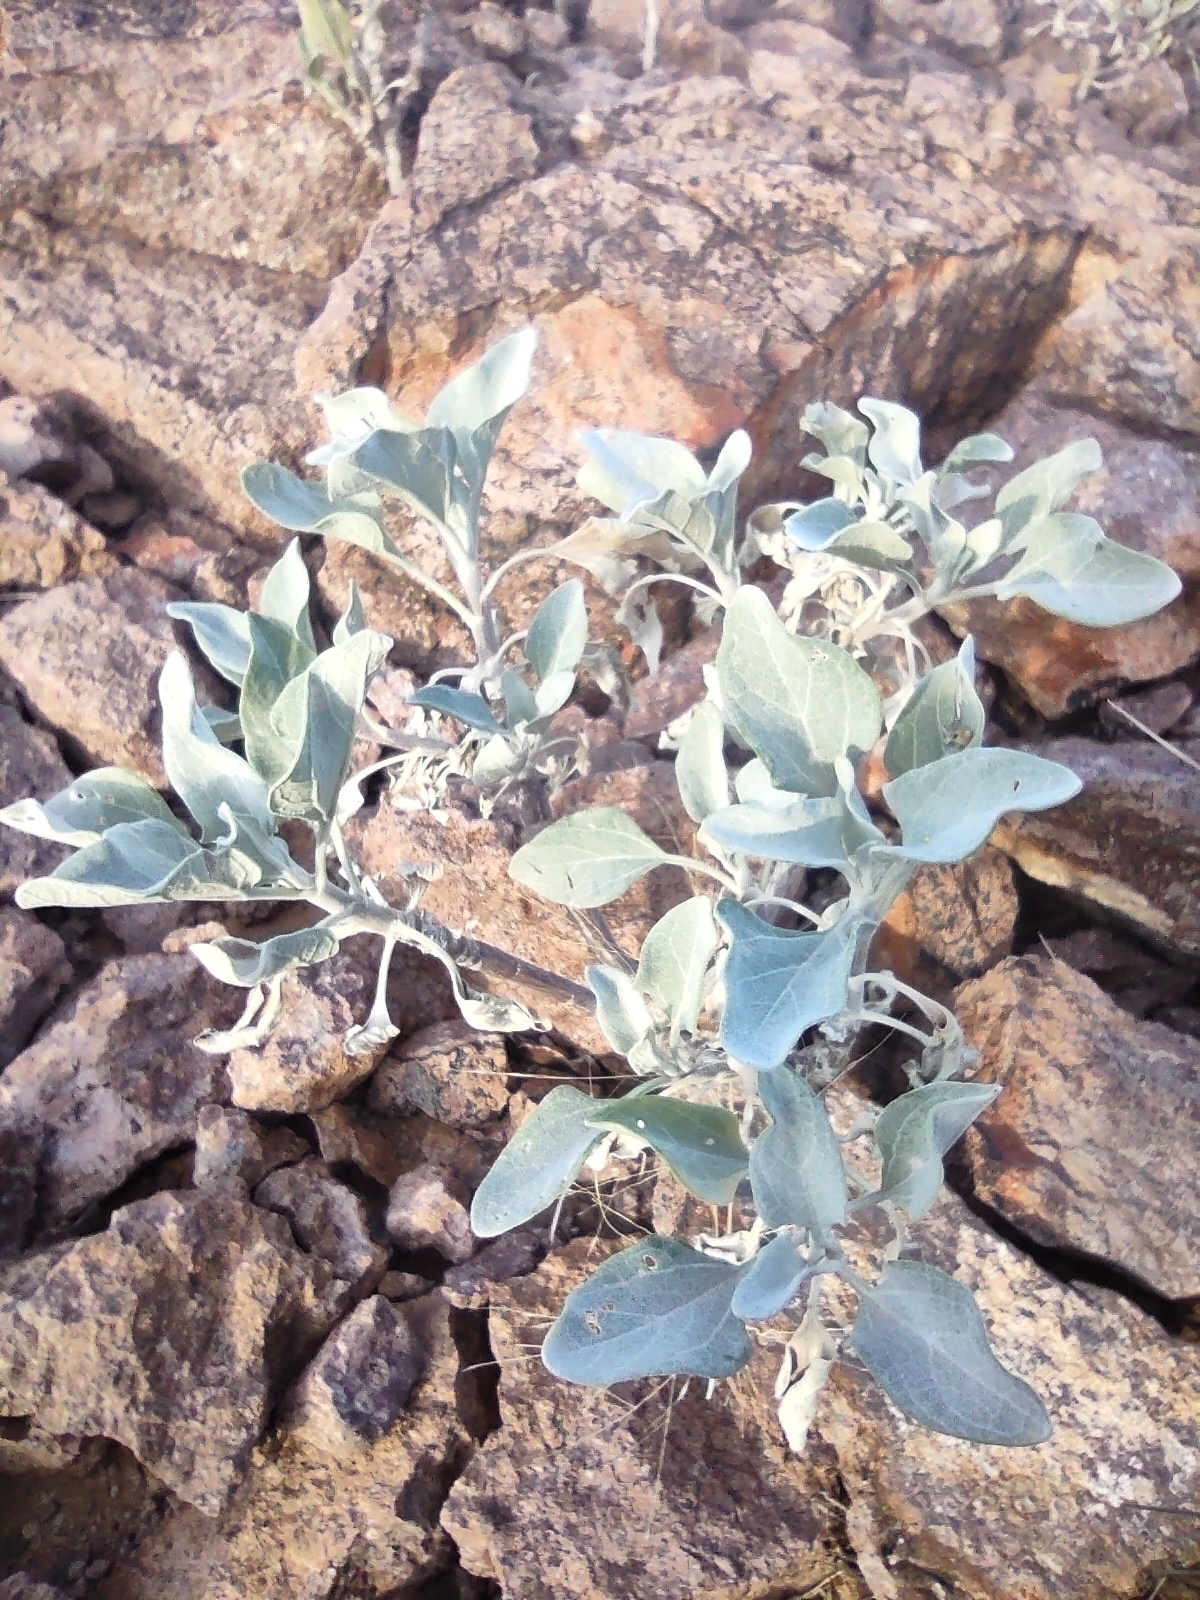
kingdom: Plantae
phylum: Tracheophyta
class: Magnoliopsida
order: Asterales
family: Asteraceae
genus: Encelia
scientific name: Encelia farinosa
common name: Brittlebush
